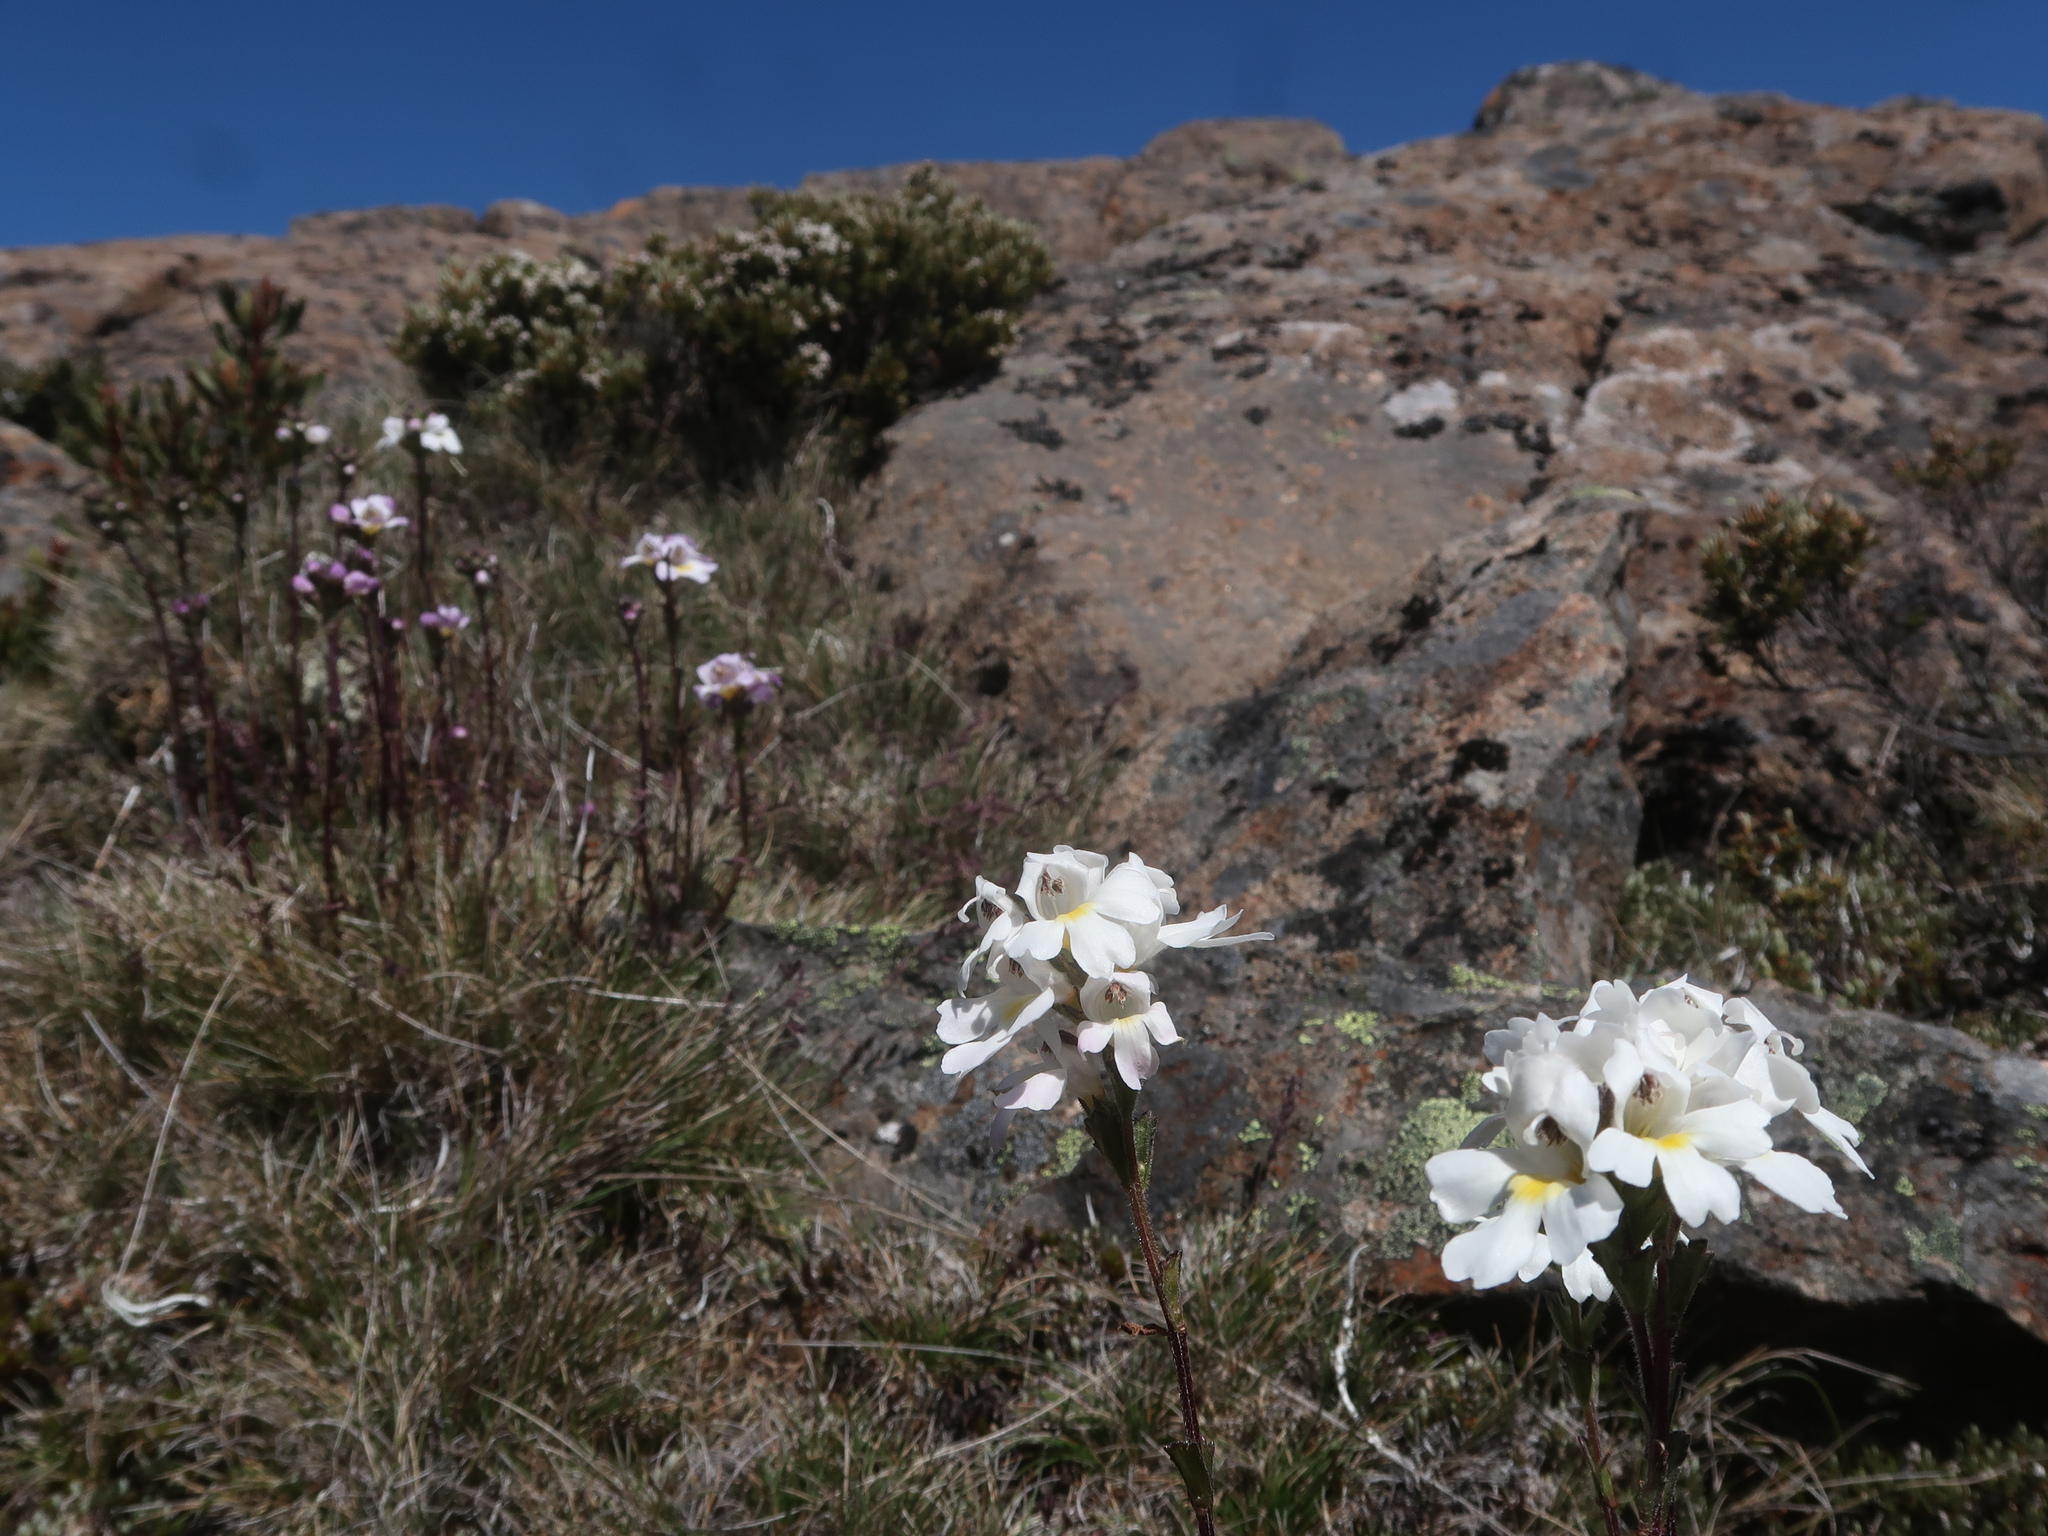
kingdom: Plantae
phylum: Tracheophyta
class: Magnoliopsida
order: Lamiales
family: Orobanchaceae
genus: Euphrasia
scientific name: Euphrasia collina
